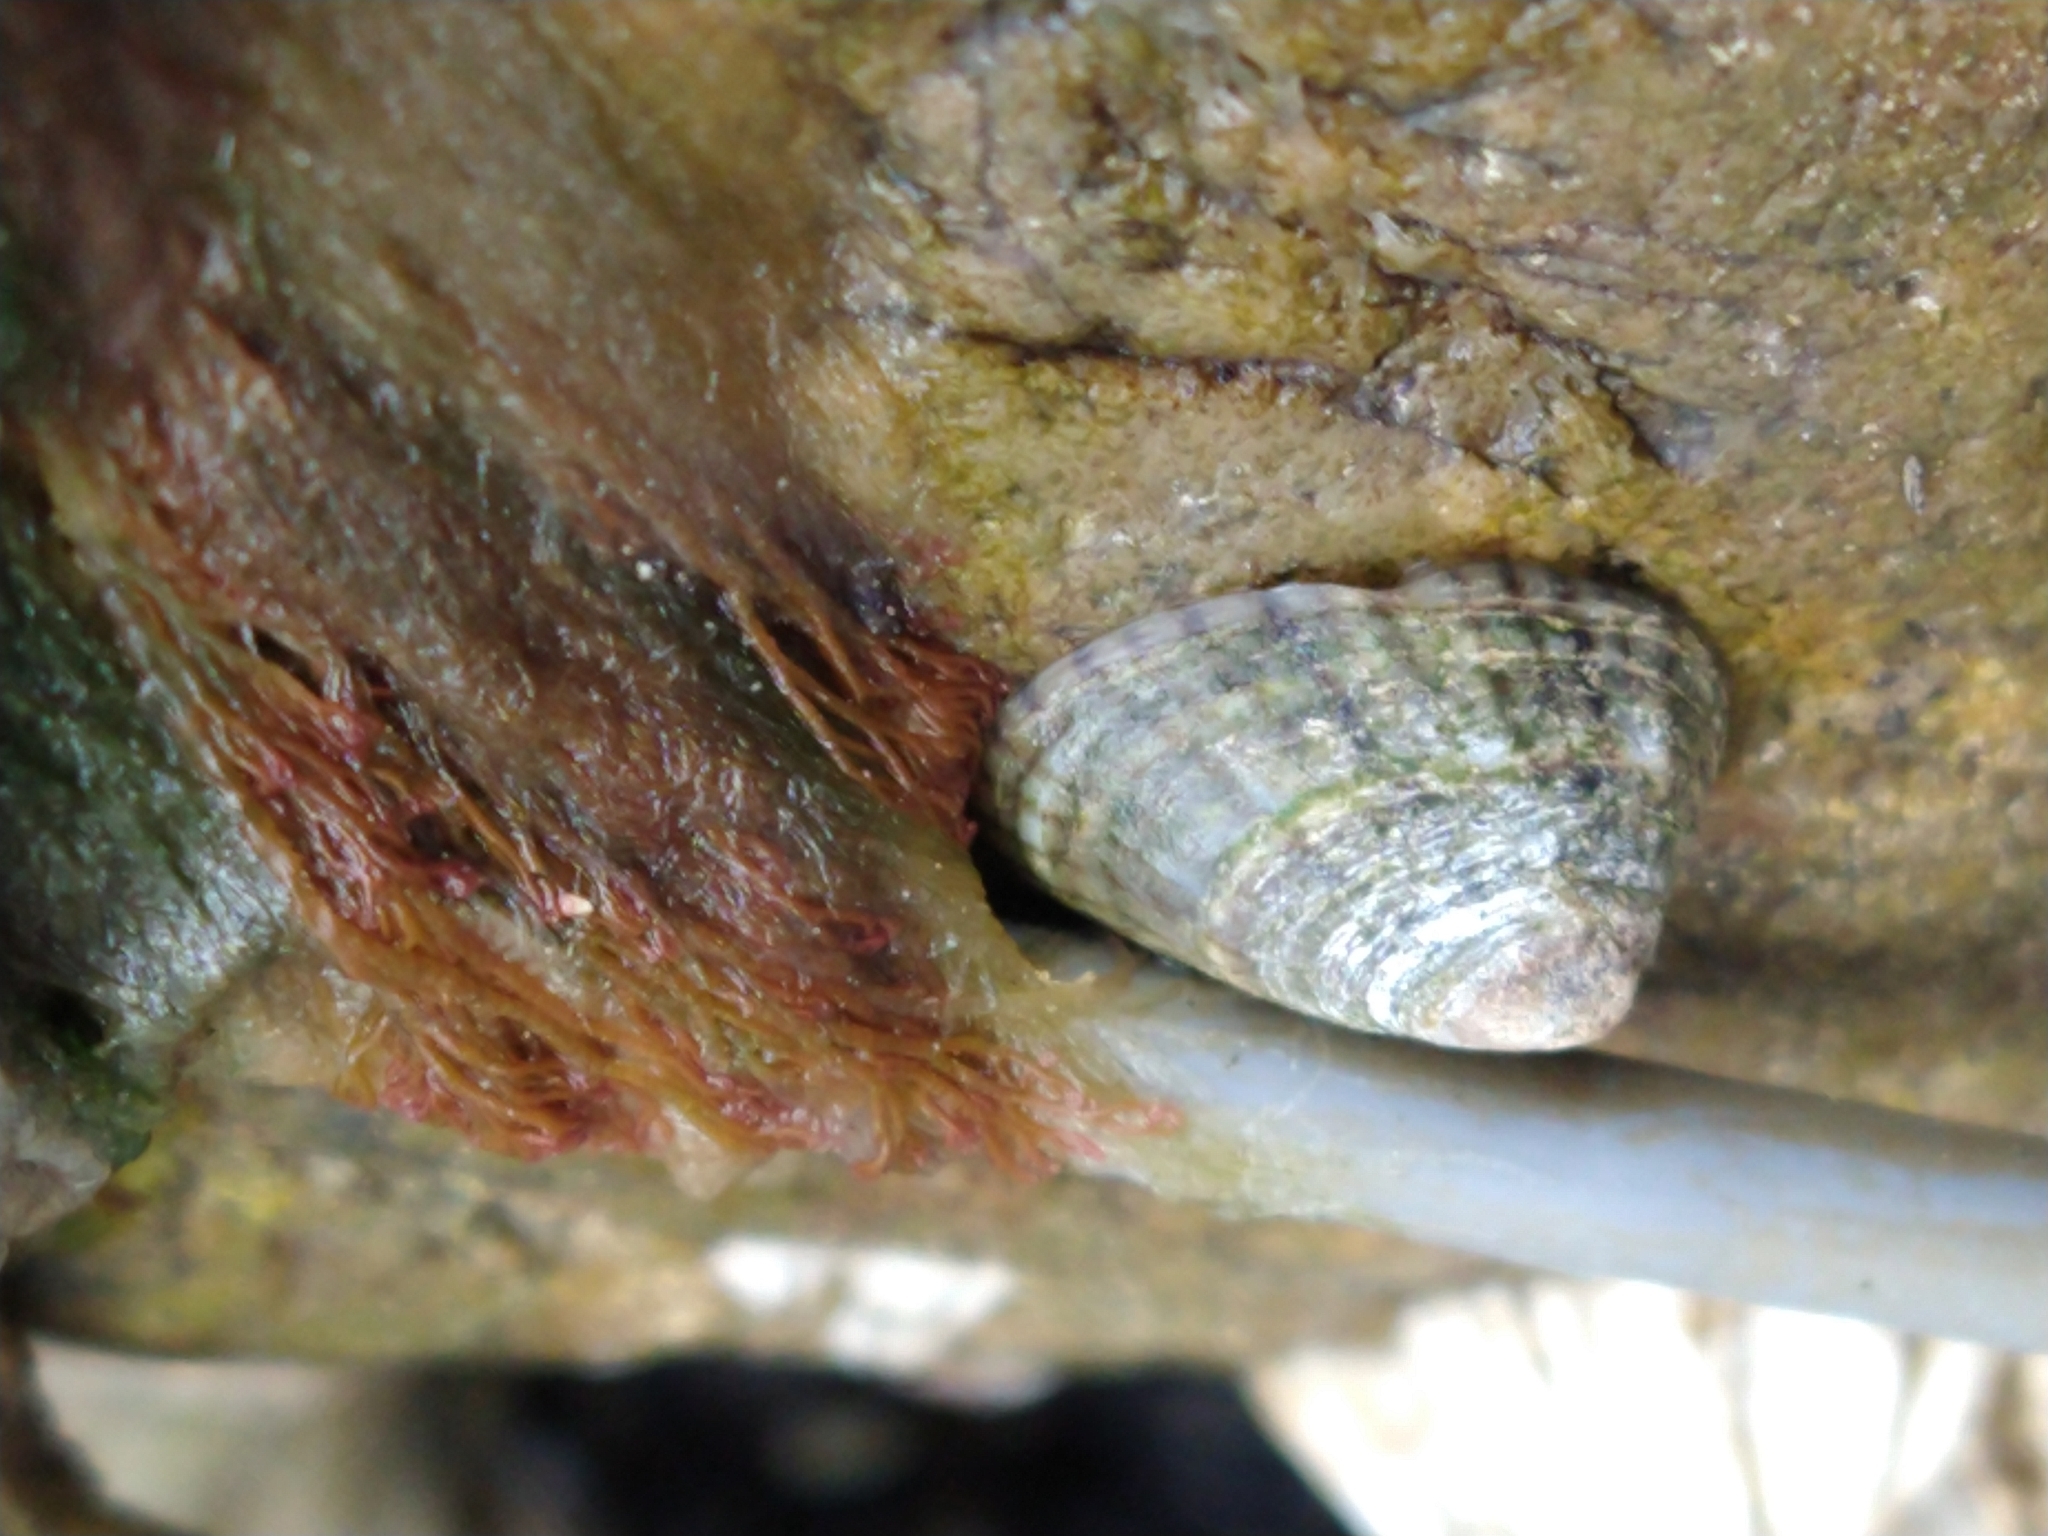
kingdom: Animalia
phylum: Mollusca
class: Gastropoda
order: Siphonariida
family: Siphonariidae
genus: Siphonaria
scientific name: Siphonaria lessonii
